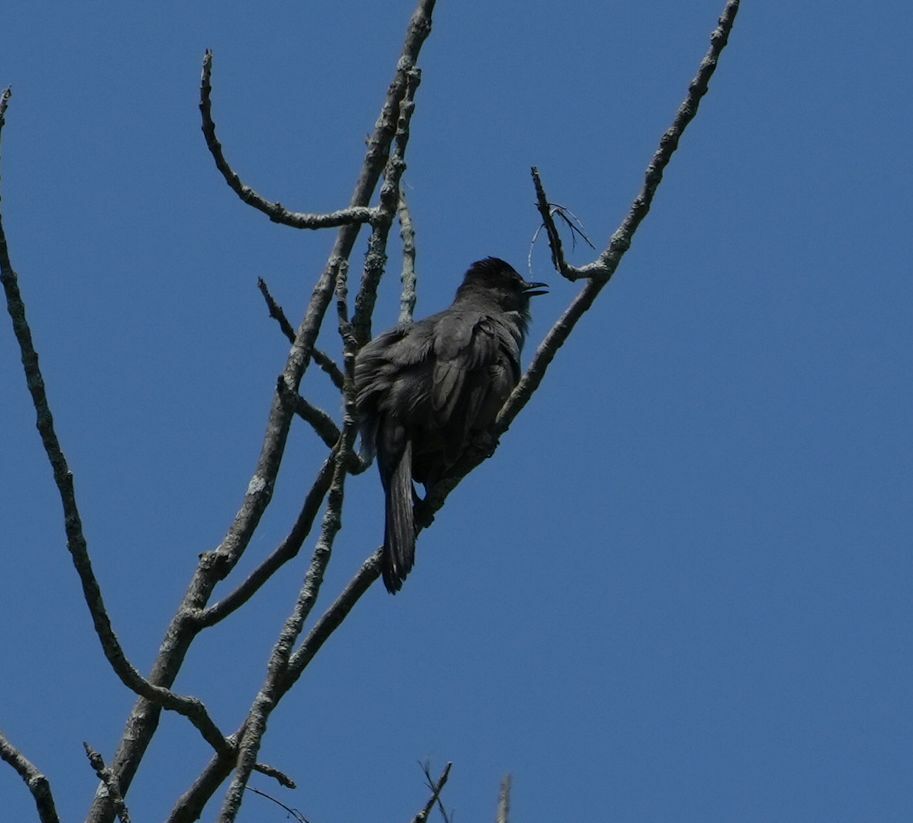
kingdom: Animalia
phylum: Chordata
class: Aves
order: Passeriformes
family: Mimidae
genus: Dumetella
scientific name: Dumetella carolinensis
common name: Gray catbird
